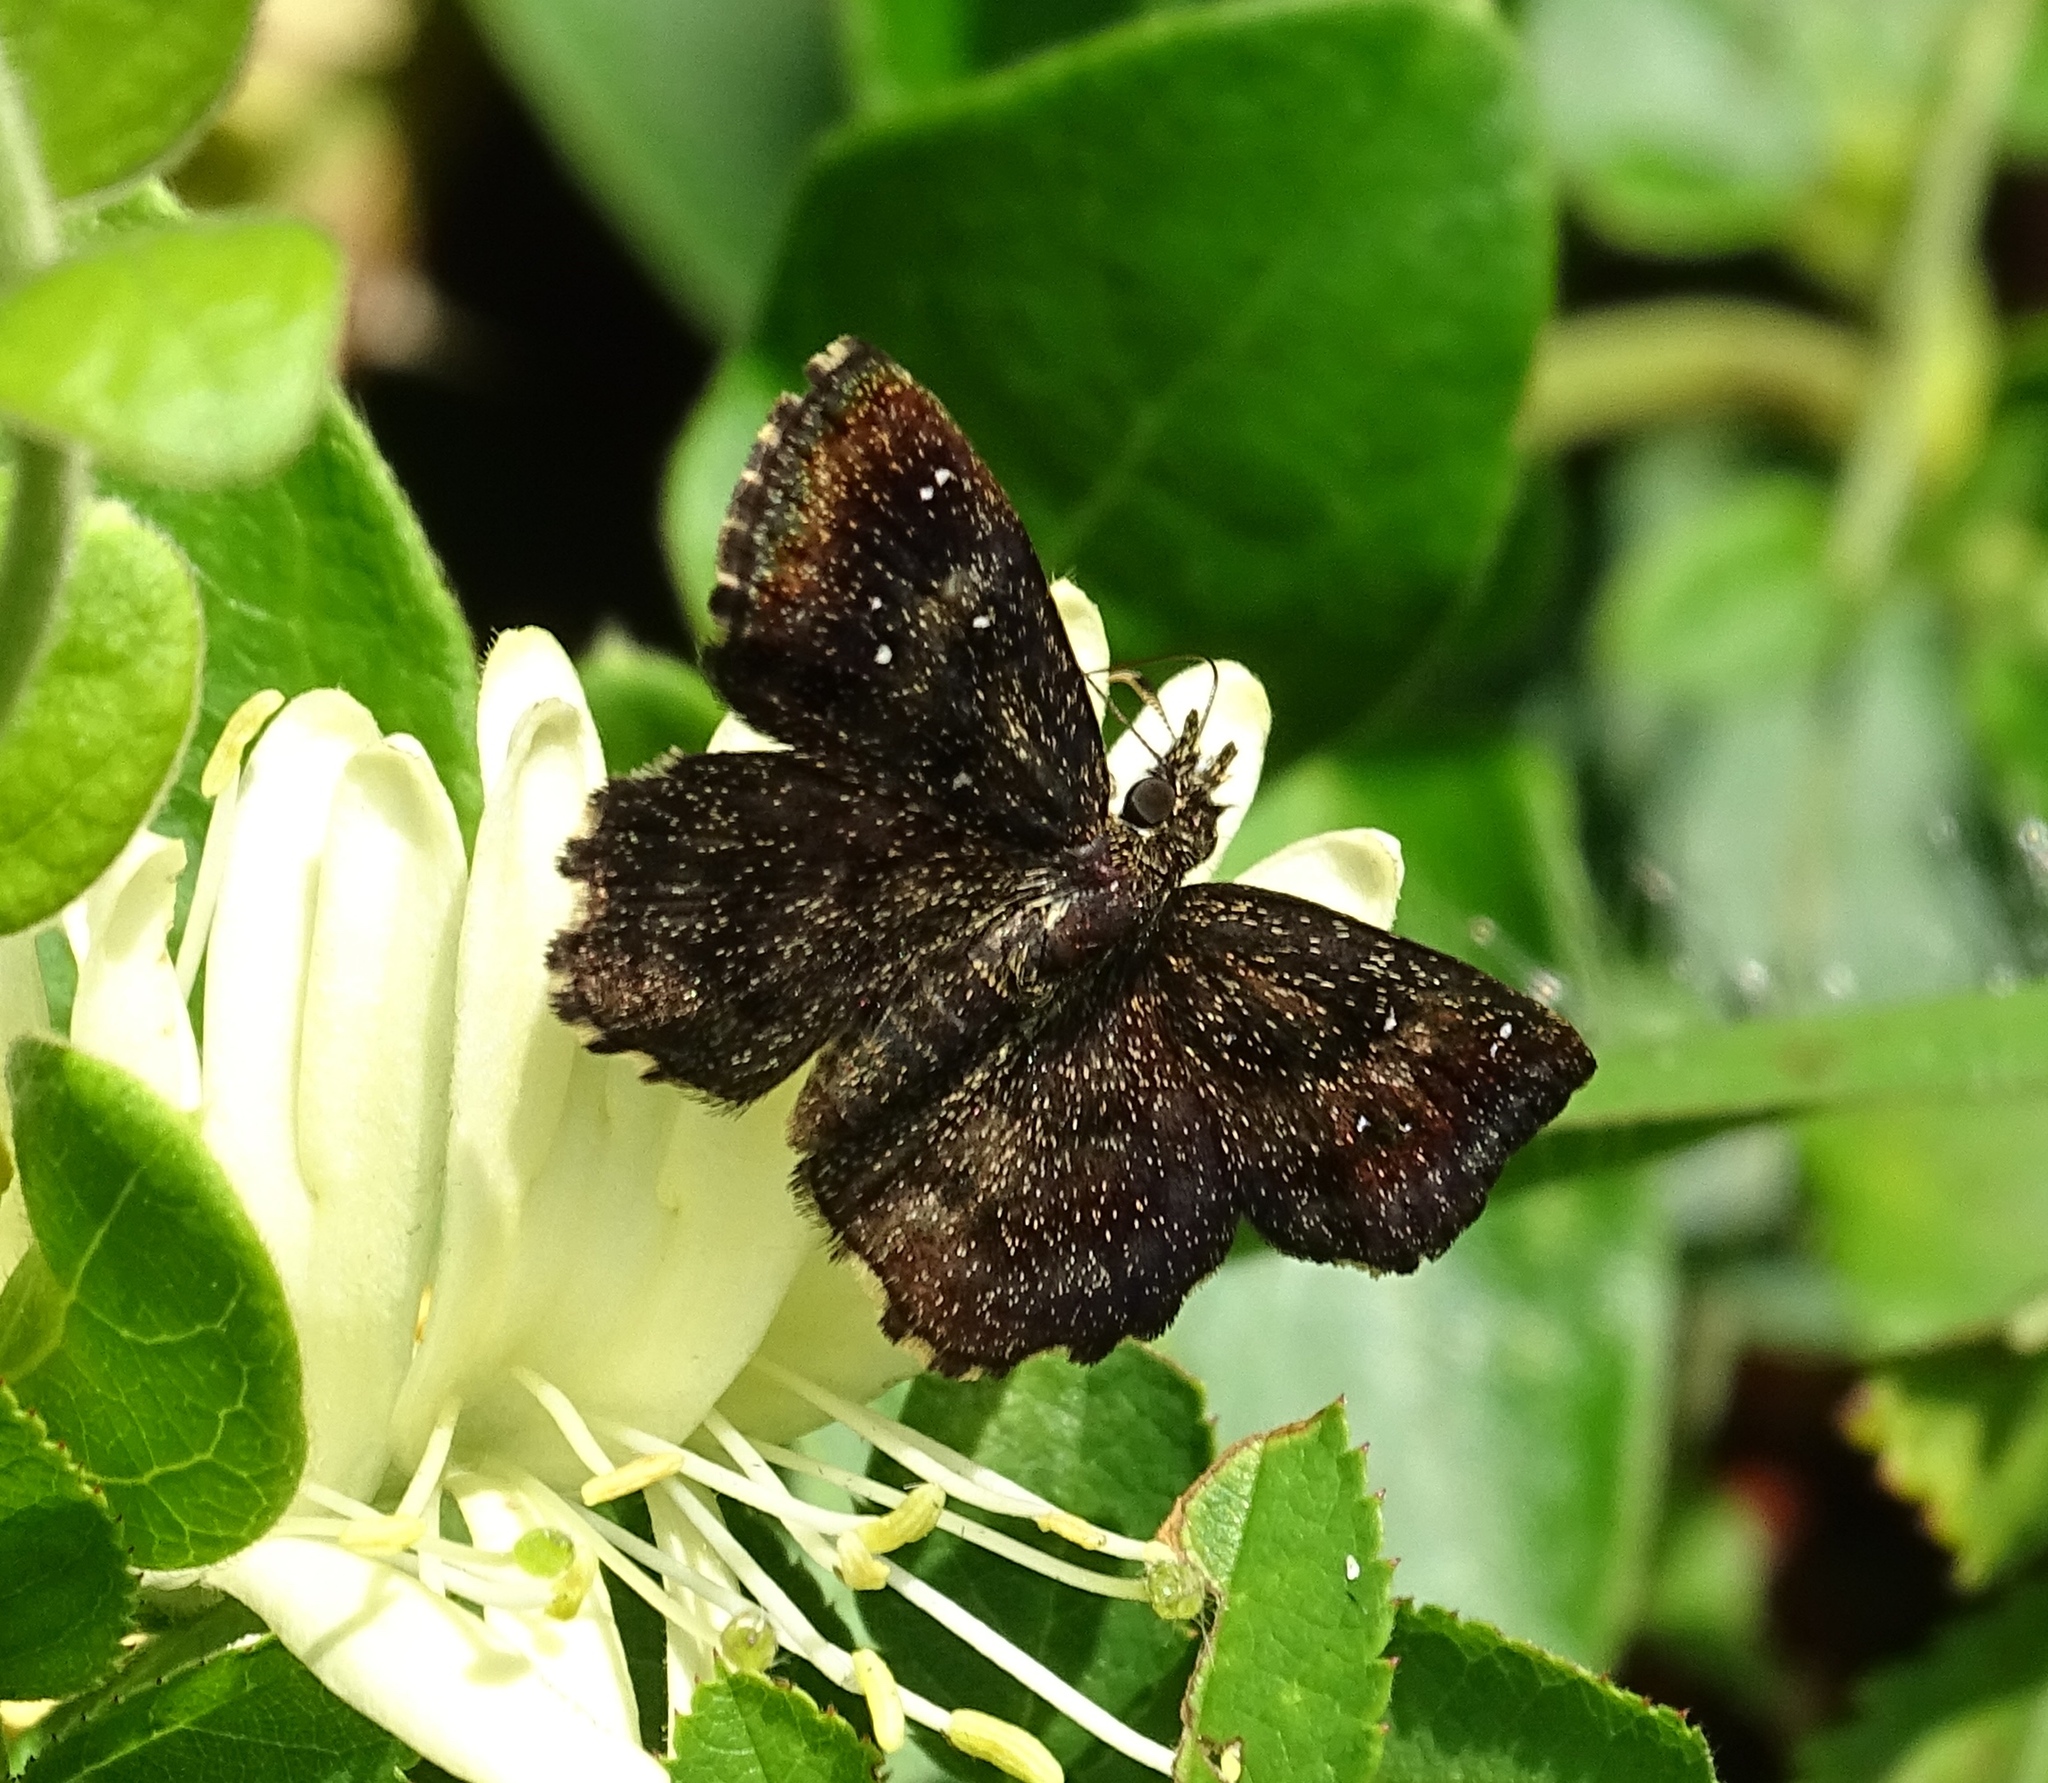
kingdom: Animalia
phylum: Arthropoda
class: Insecta
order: Lepidoptera
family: Hesperiidae
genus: Staphylus
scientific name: Staphylus mazans
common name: Mazans scallopwing
